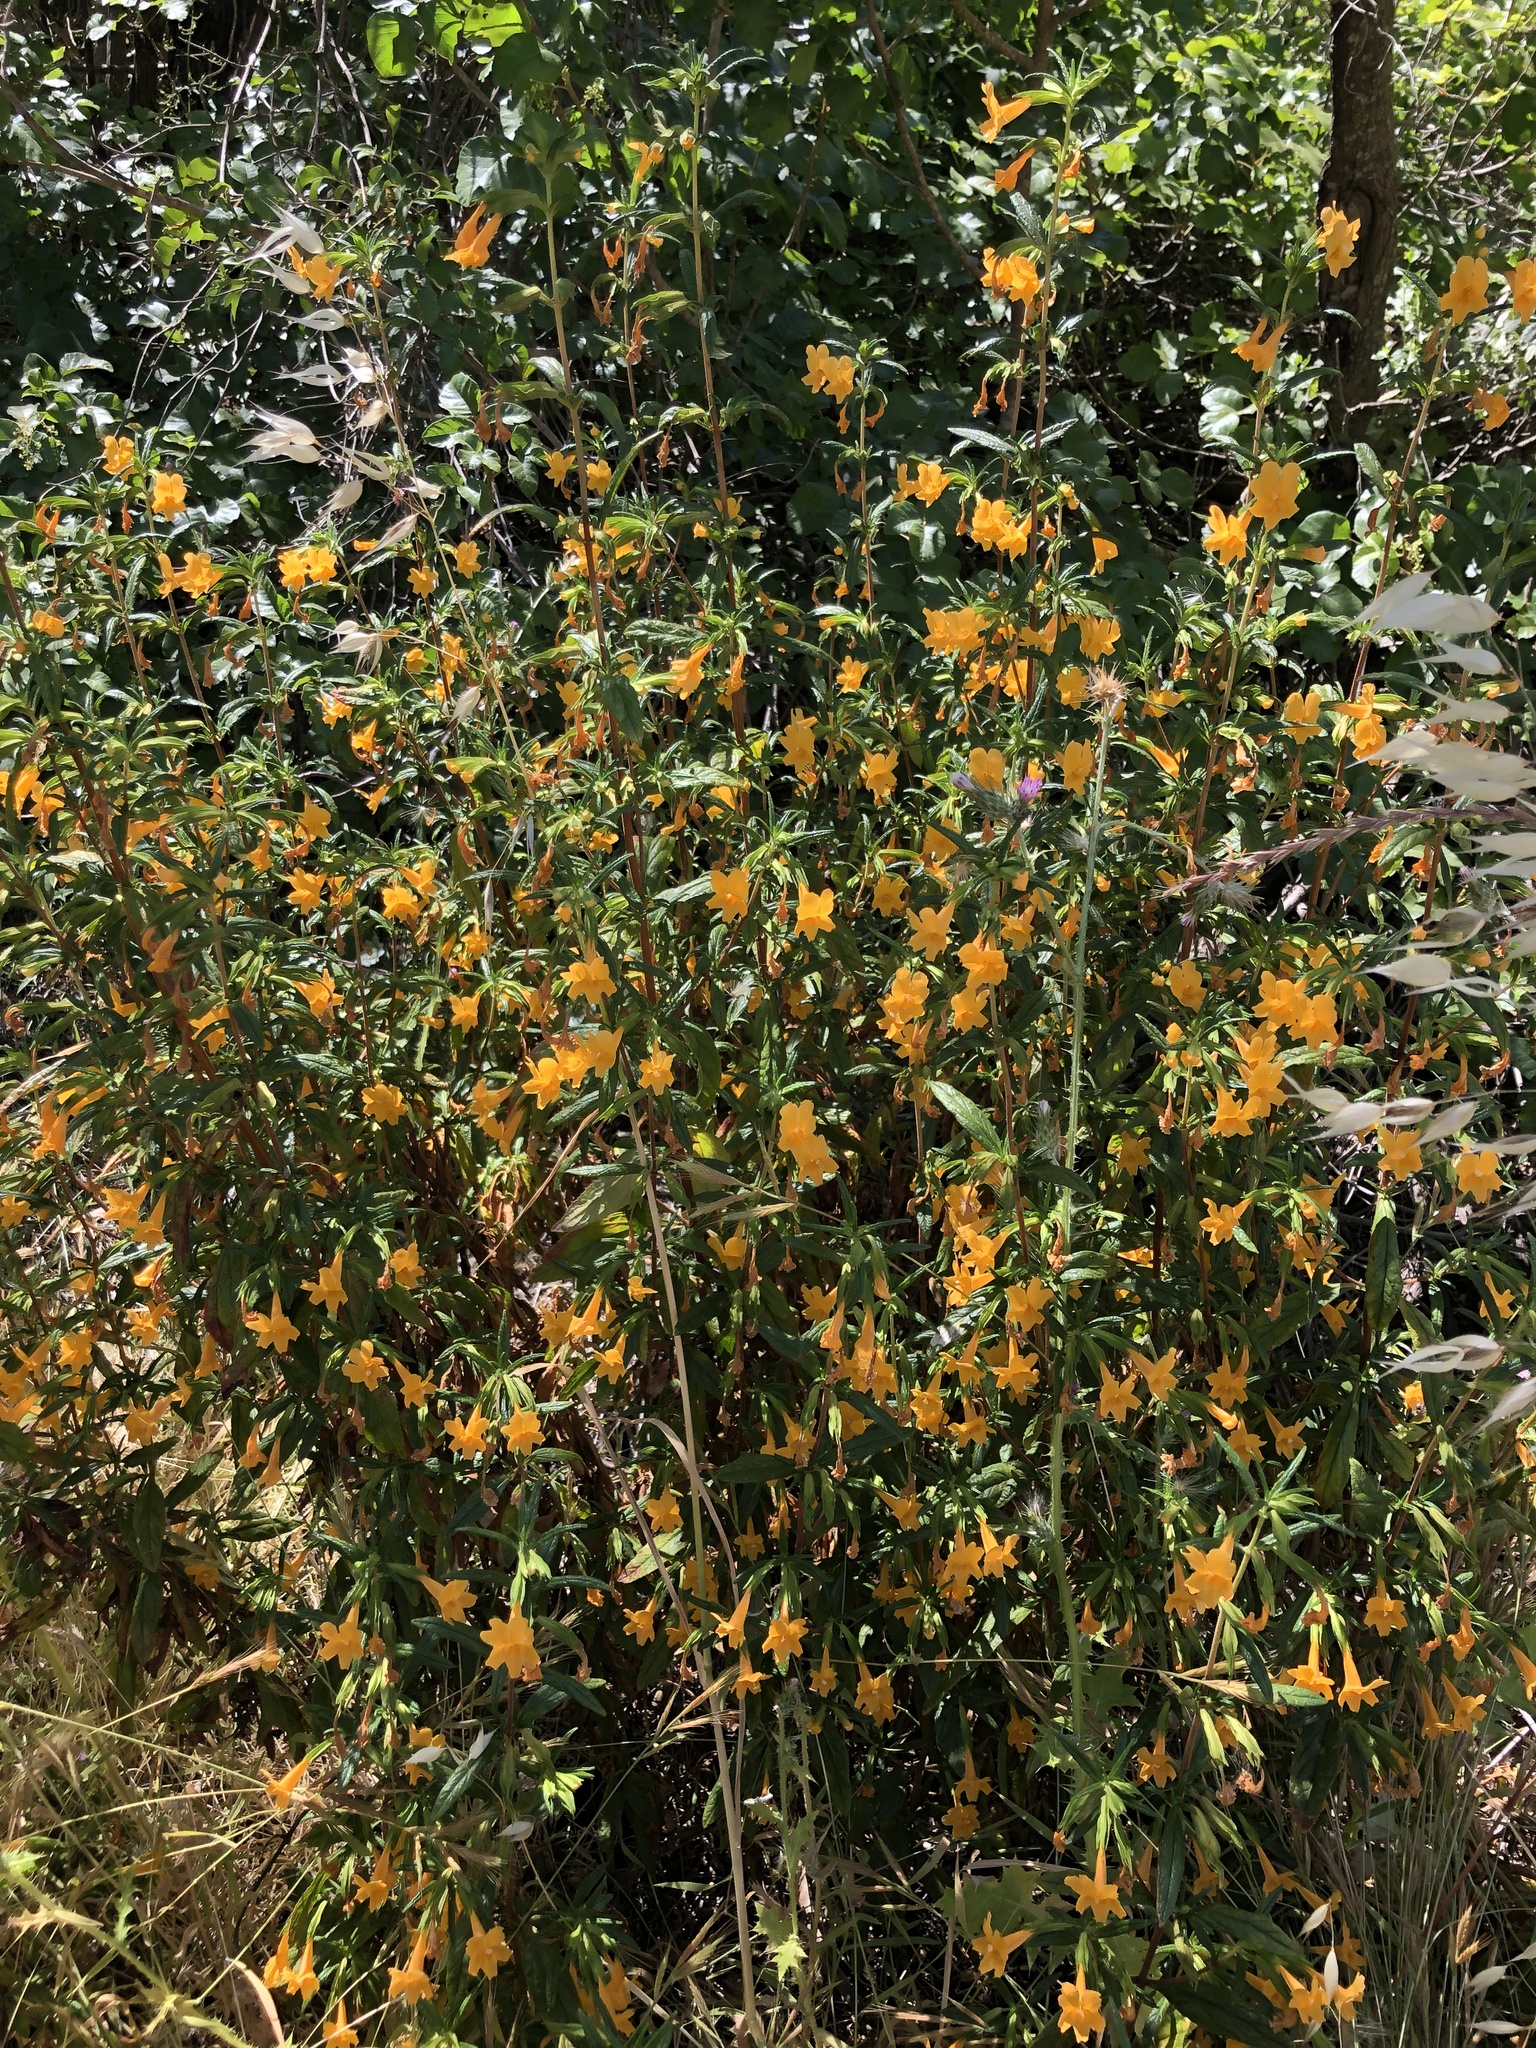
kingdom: Plantae
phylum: Tracheophyta
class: Magnoliopsida
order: Lamiales
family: Phrymaceae
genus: Diplacus
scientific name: Diplacus aurantiacus
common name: Bush monkey-flower
